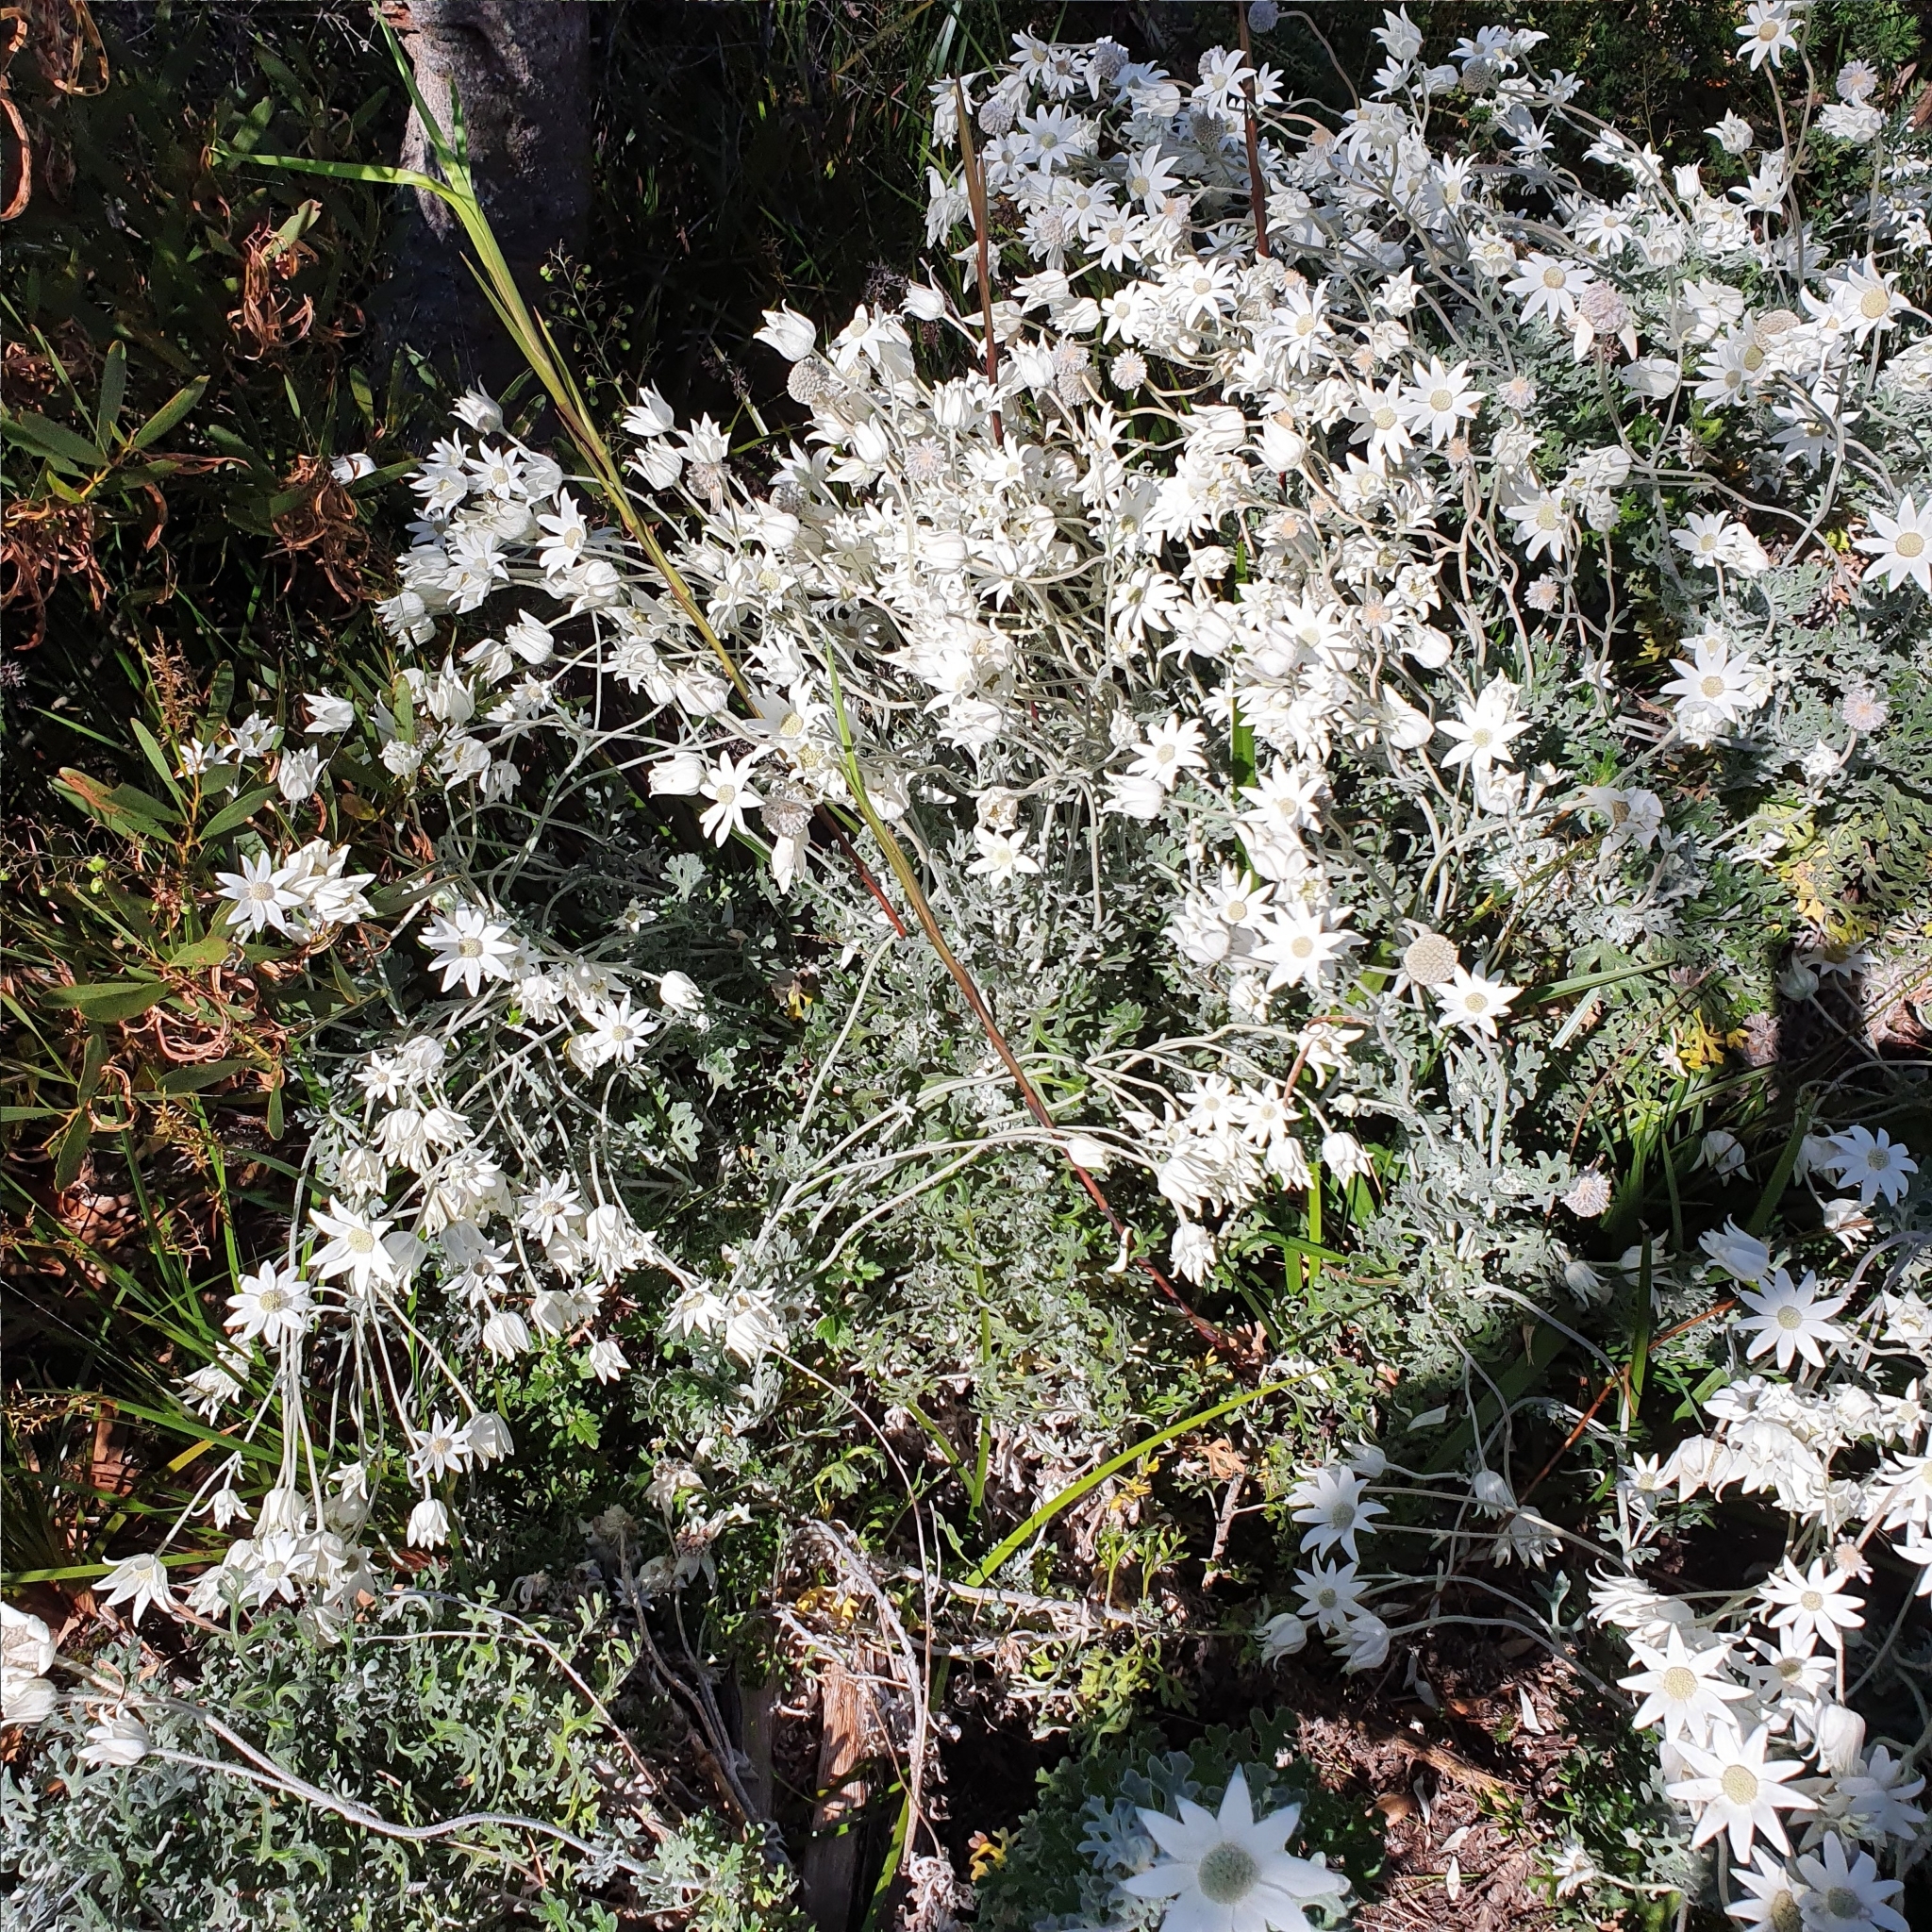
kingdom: Plantae
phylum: Tracheophyta
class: Magnoliopsida
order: Apiales
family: Apiaceae
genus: Actinotus
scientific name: Actinotus helianthi
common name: Flannel-flower
